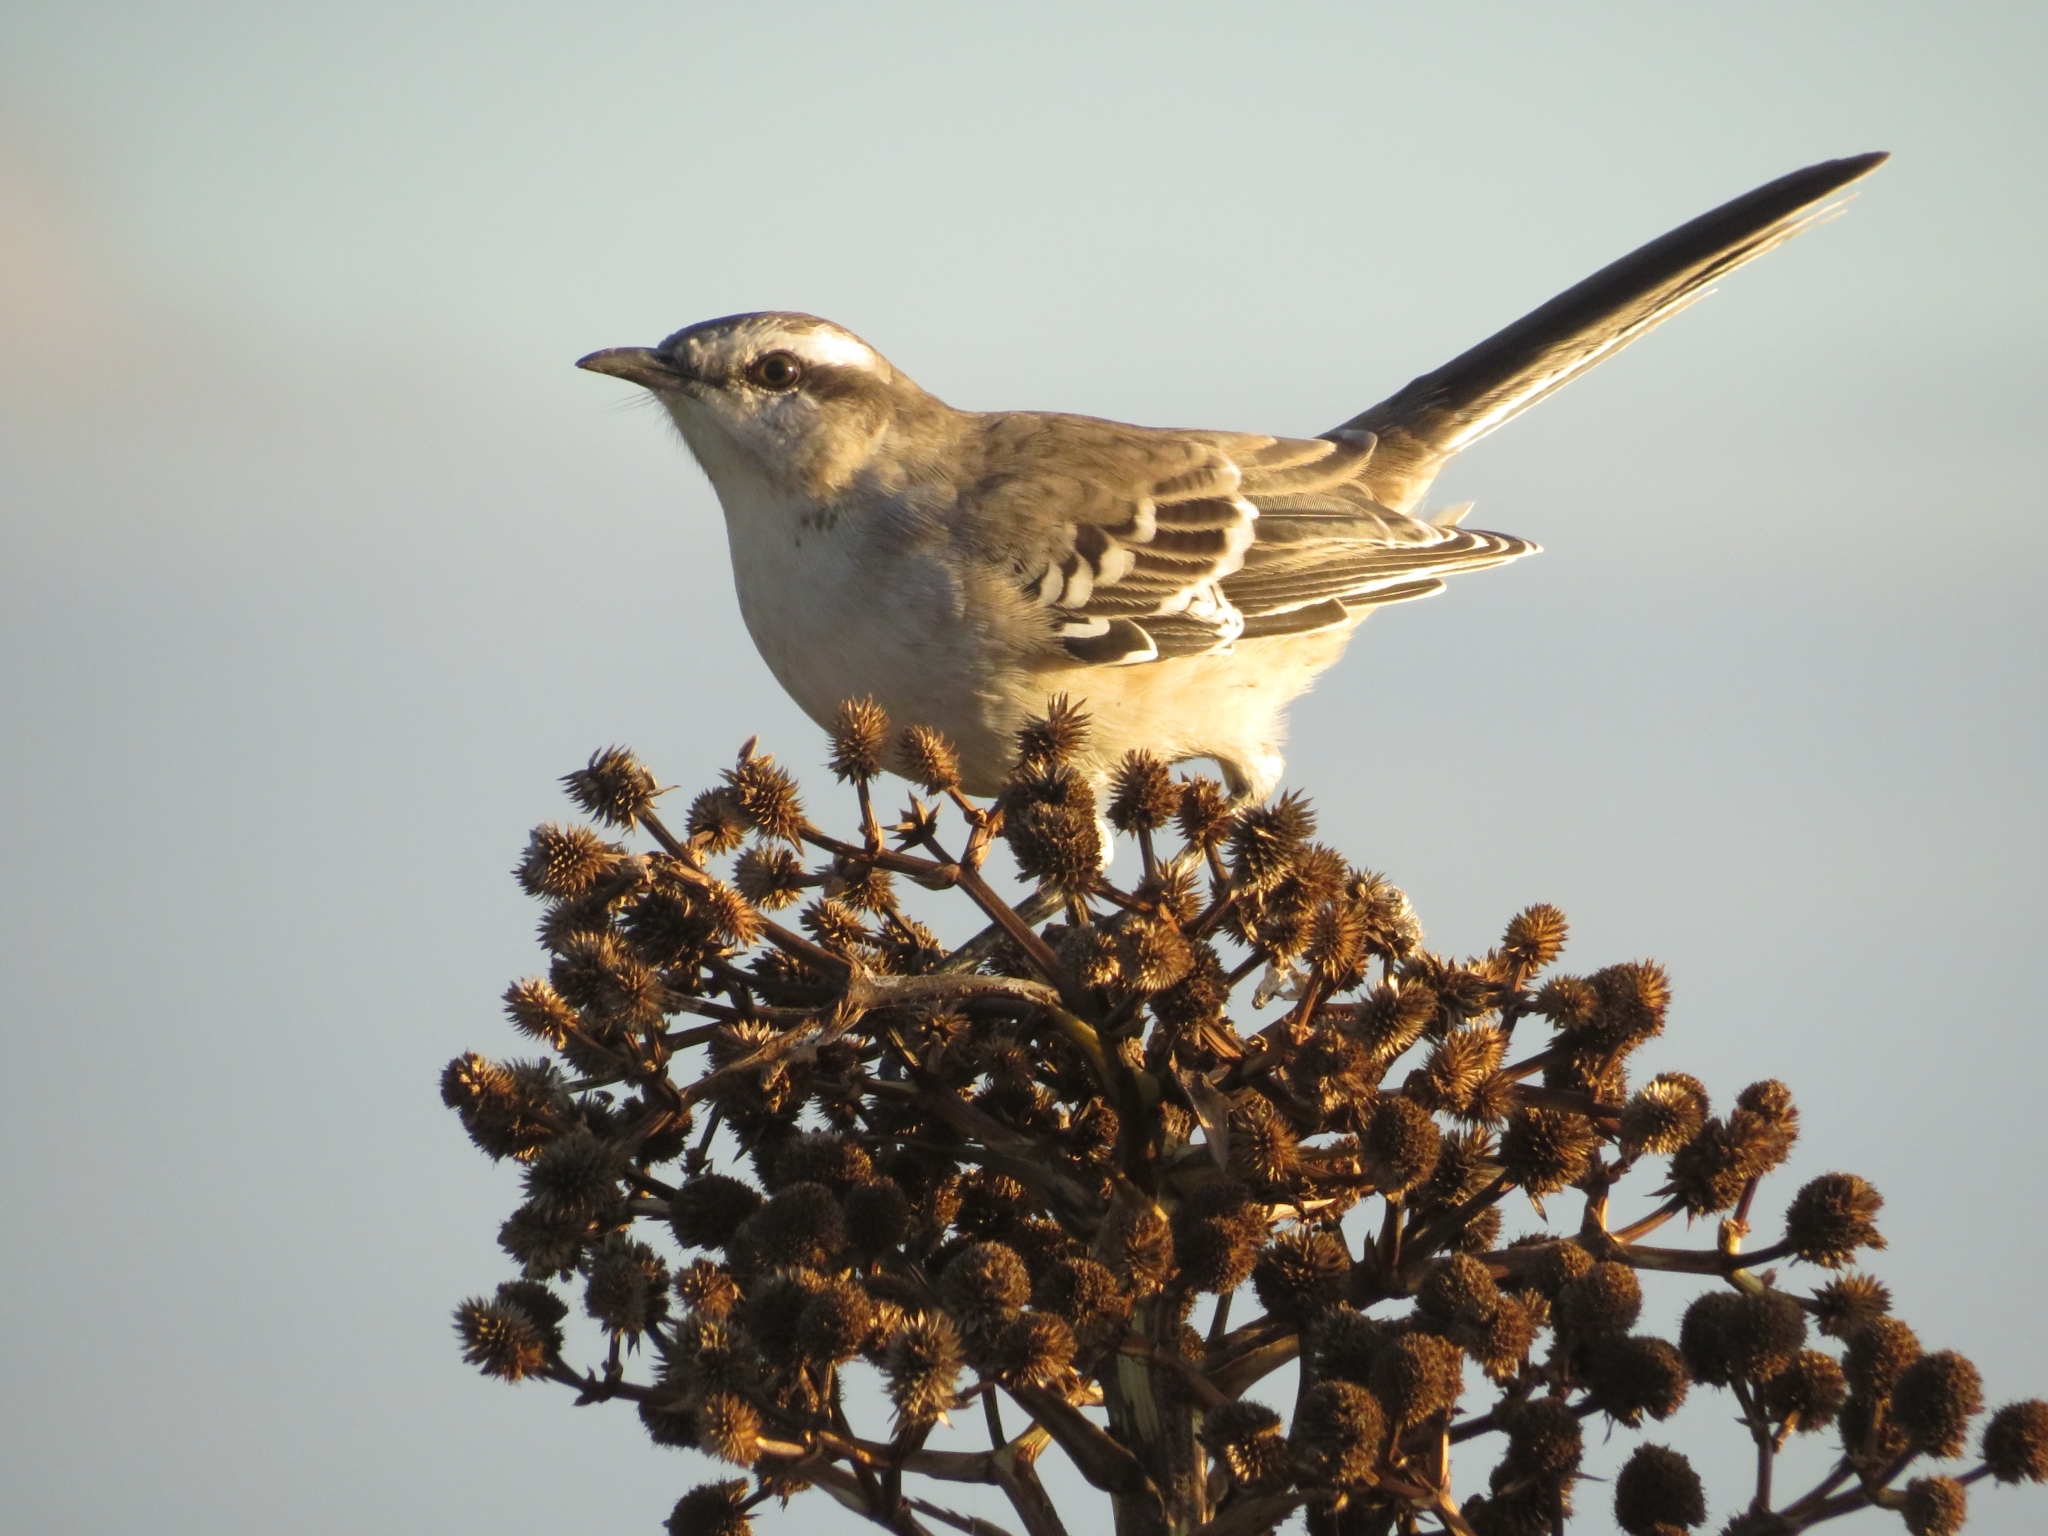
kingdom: Animalia
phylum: Chordata
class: Aves
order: Passeriformes
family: Mimidae
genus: Mimus
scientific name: Mimus saturninus
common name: Chalk-browed mockingbird
